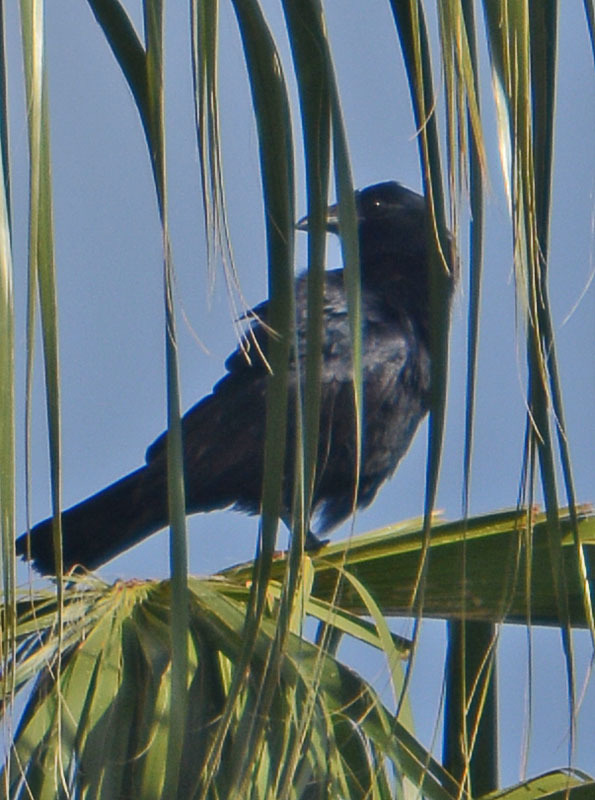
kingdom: Animalia
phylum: Chordata
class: Aves
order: Passeriformes
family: Icteridae
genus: Quiscalus
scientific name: Quiscalus major
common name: Boat-tailed grackle
